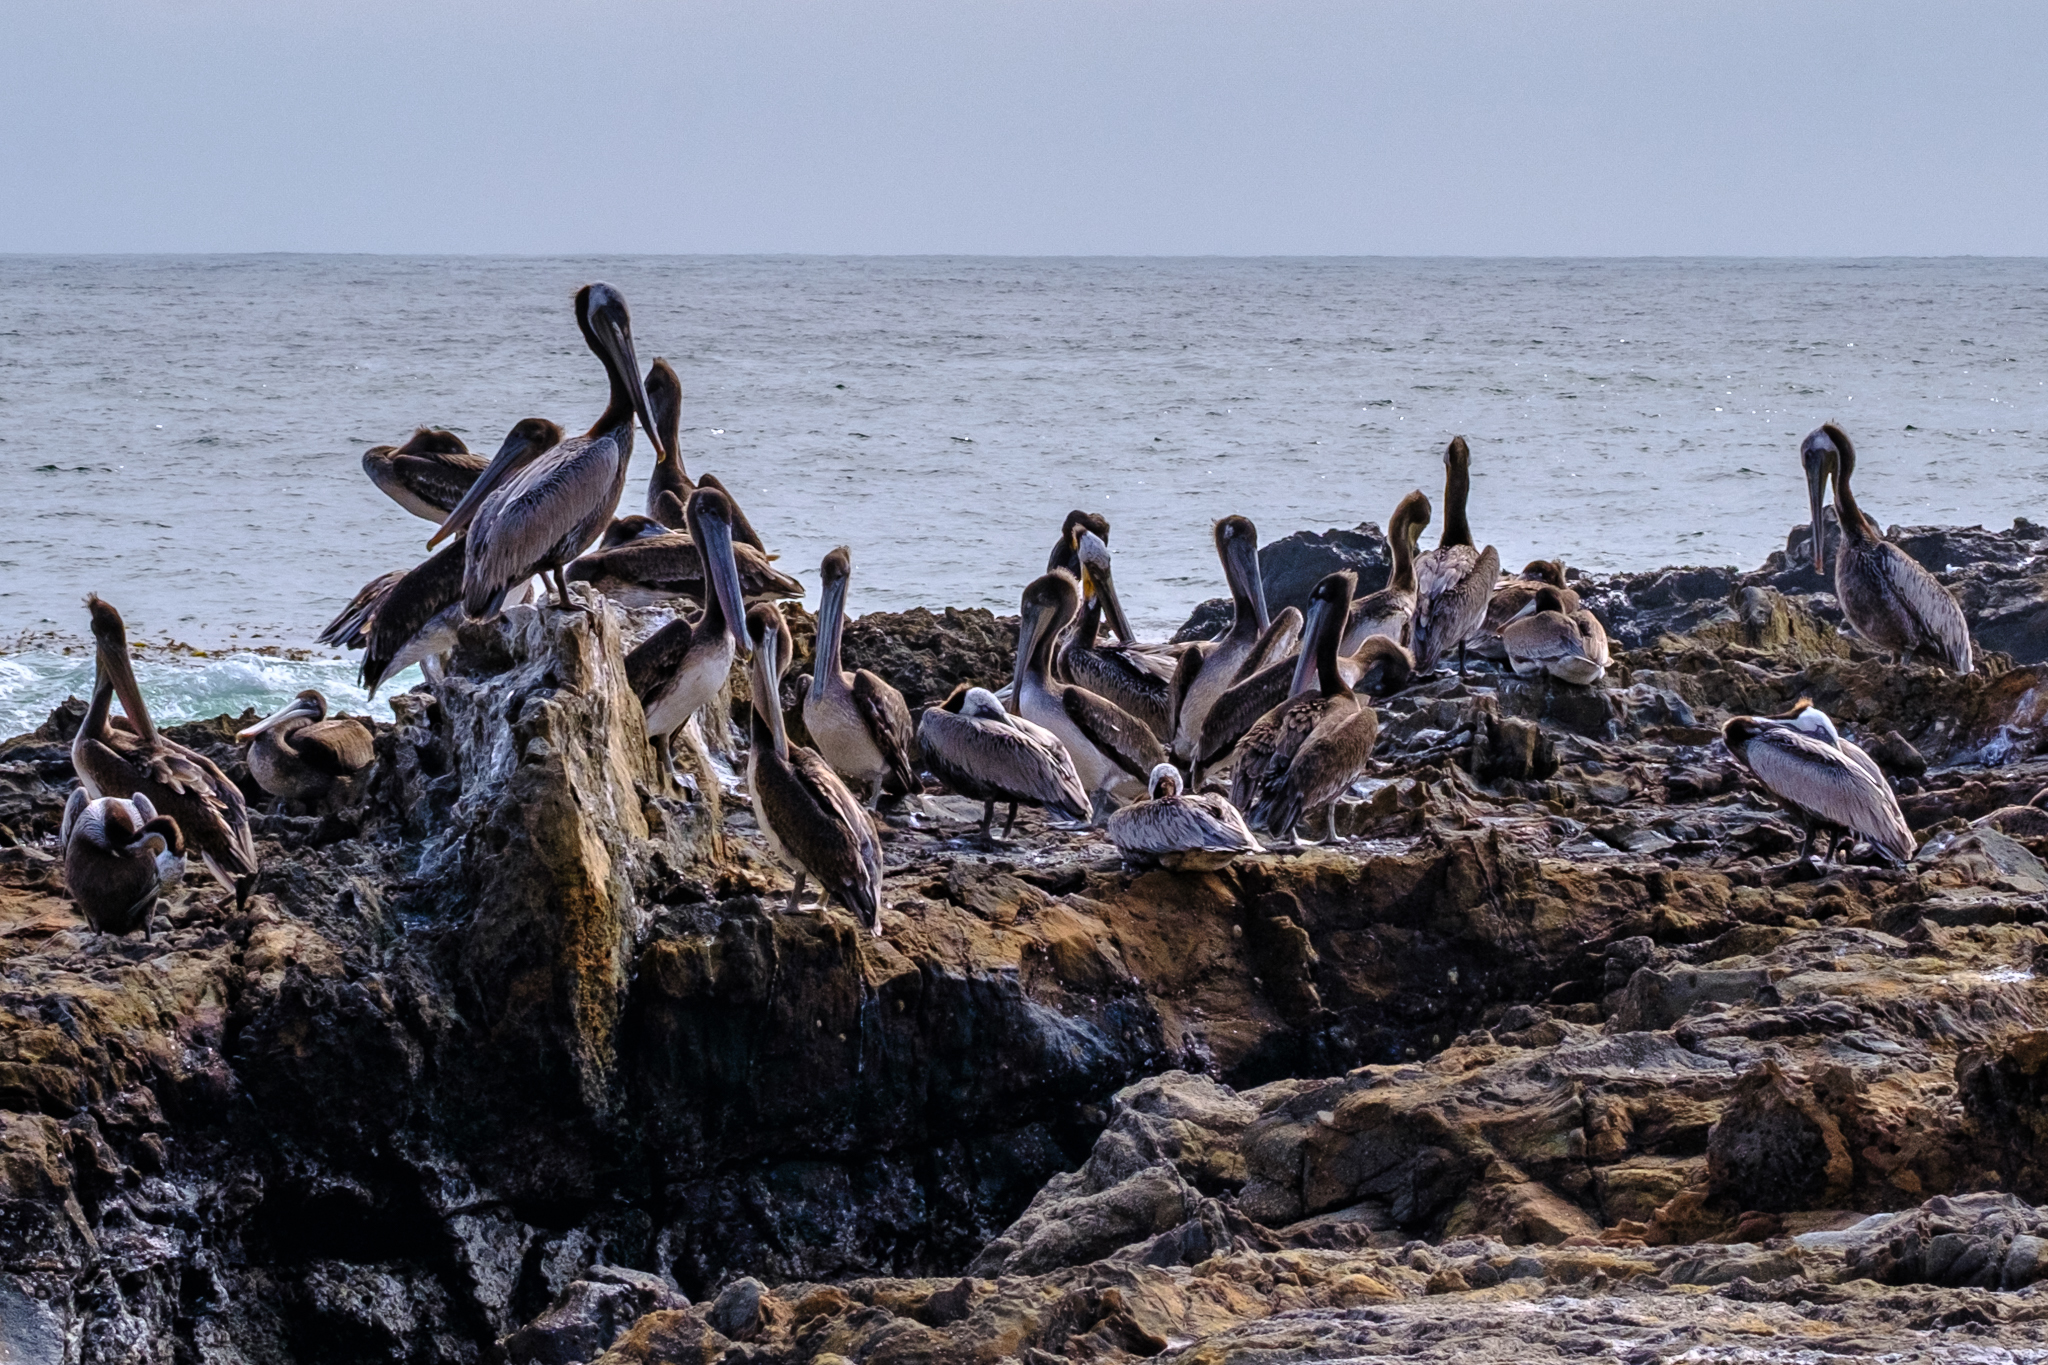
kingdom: Animalia
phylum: Chordata
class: Aves
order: Pelecaniformes
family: Pelecanidae
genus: Pelecanus
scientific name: Pelecanus occidentalis
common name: Brown pelican
